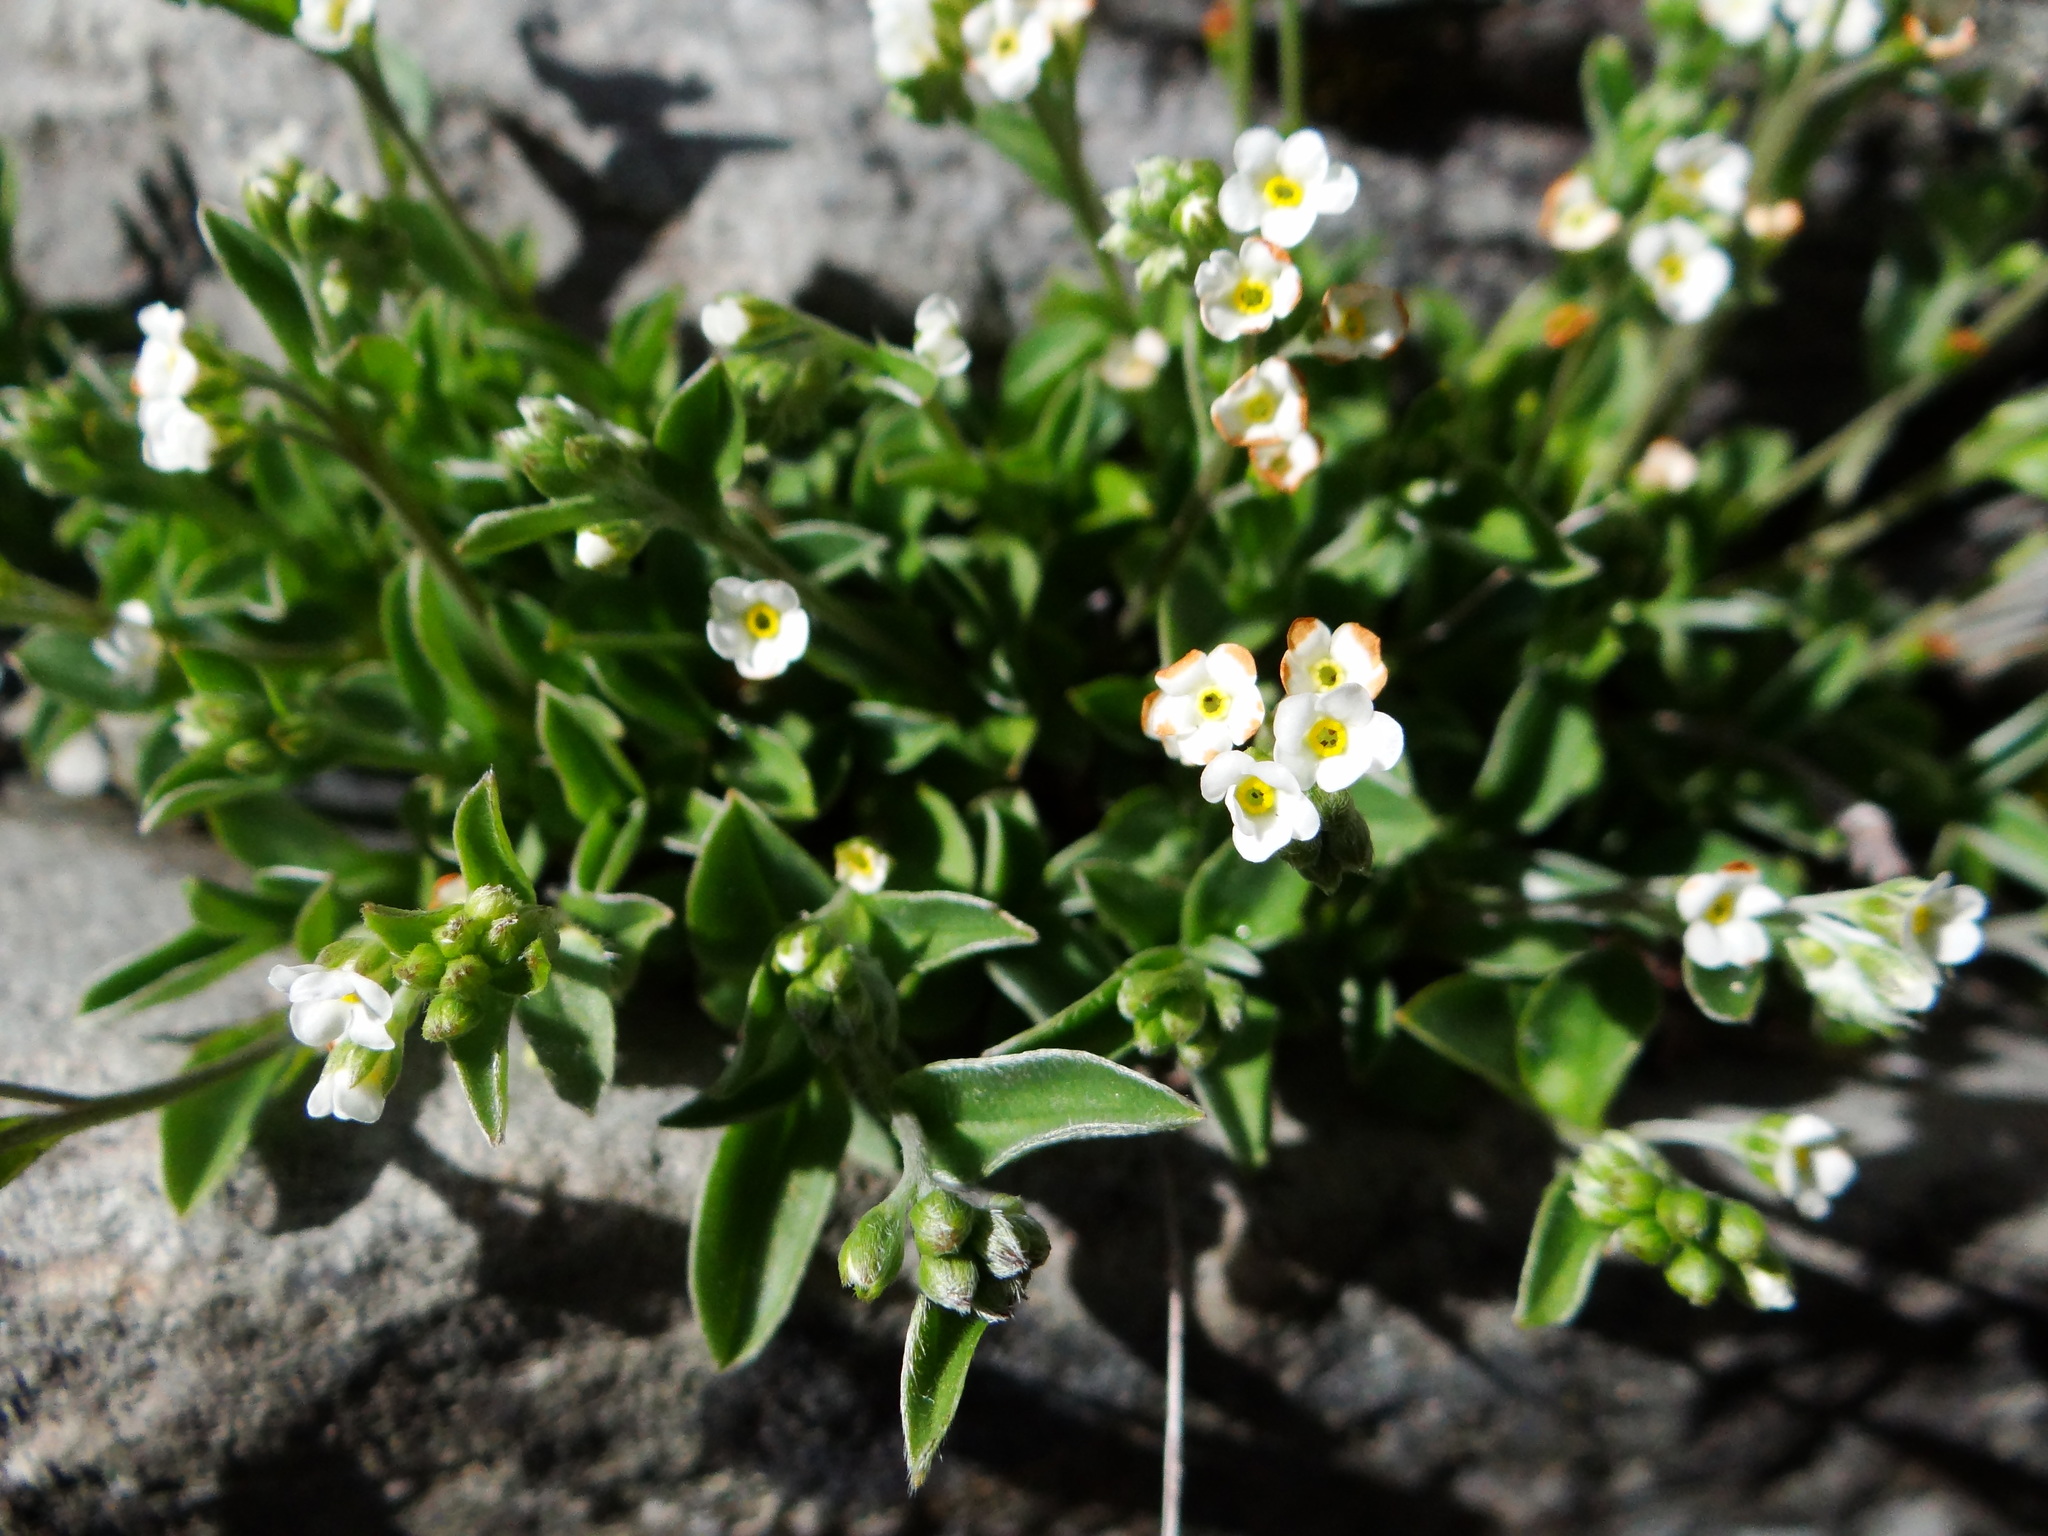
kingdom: Plantae
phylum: Tracheophyta
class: Magnoliopsida
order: Boraginales
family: Boraginaceae
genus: Trigonotis
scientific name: Trigonotis nankotaizanensis
